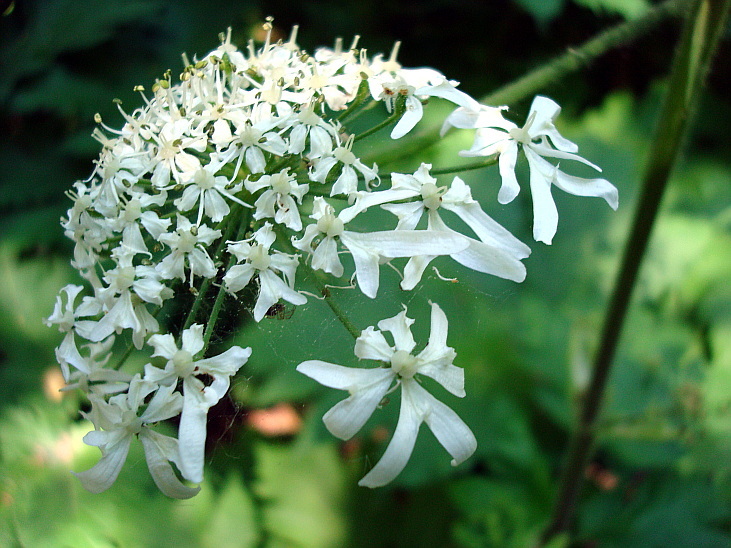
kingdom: Plantae
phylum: Tracheophyta
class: Magnoliopsida
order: Apiales
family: Apiaceae
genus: Heracleum
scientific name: Heracleum maximum
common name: American cow parsnip
